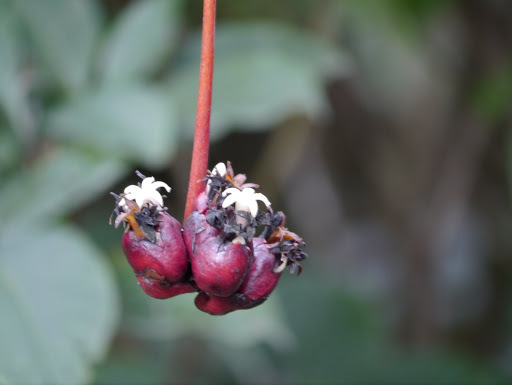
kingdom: Plantae
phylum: Tracheophyta
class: Magnoliopsida
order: Gentianales
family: Rubiaceae
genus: Psychotria
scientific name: Psychotria camptopus
